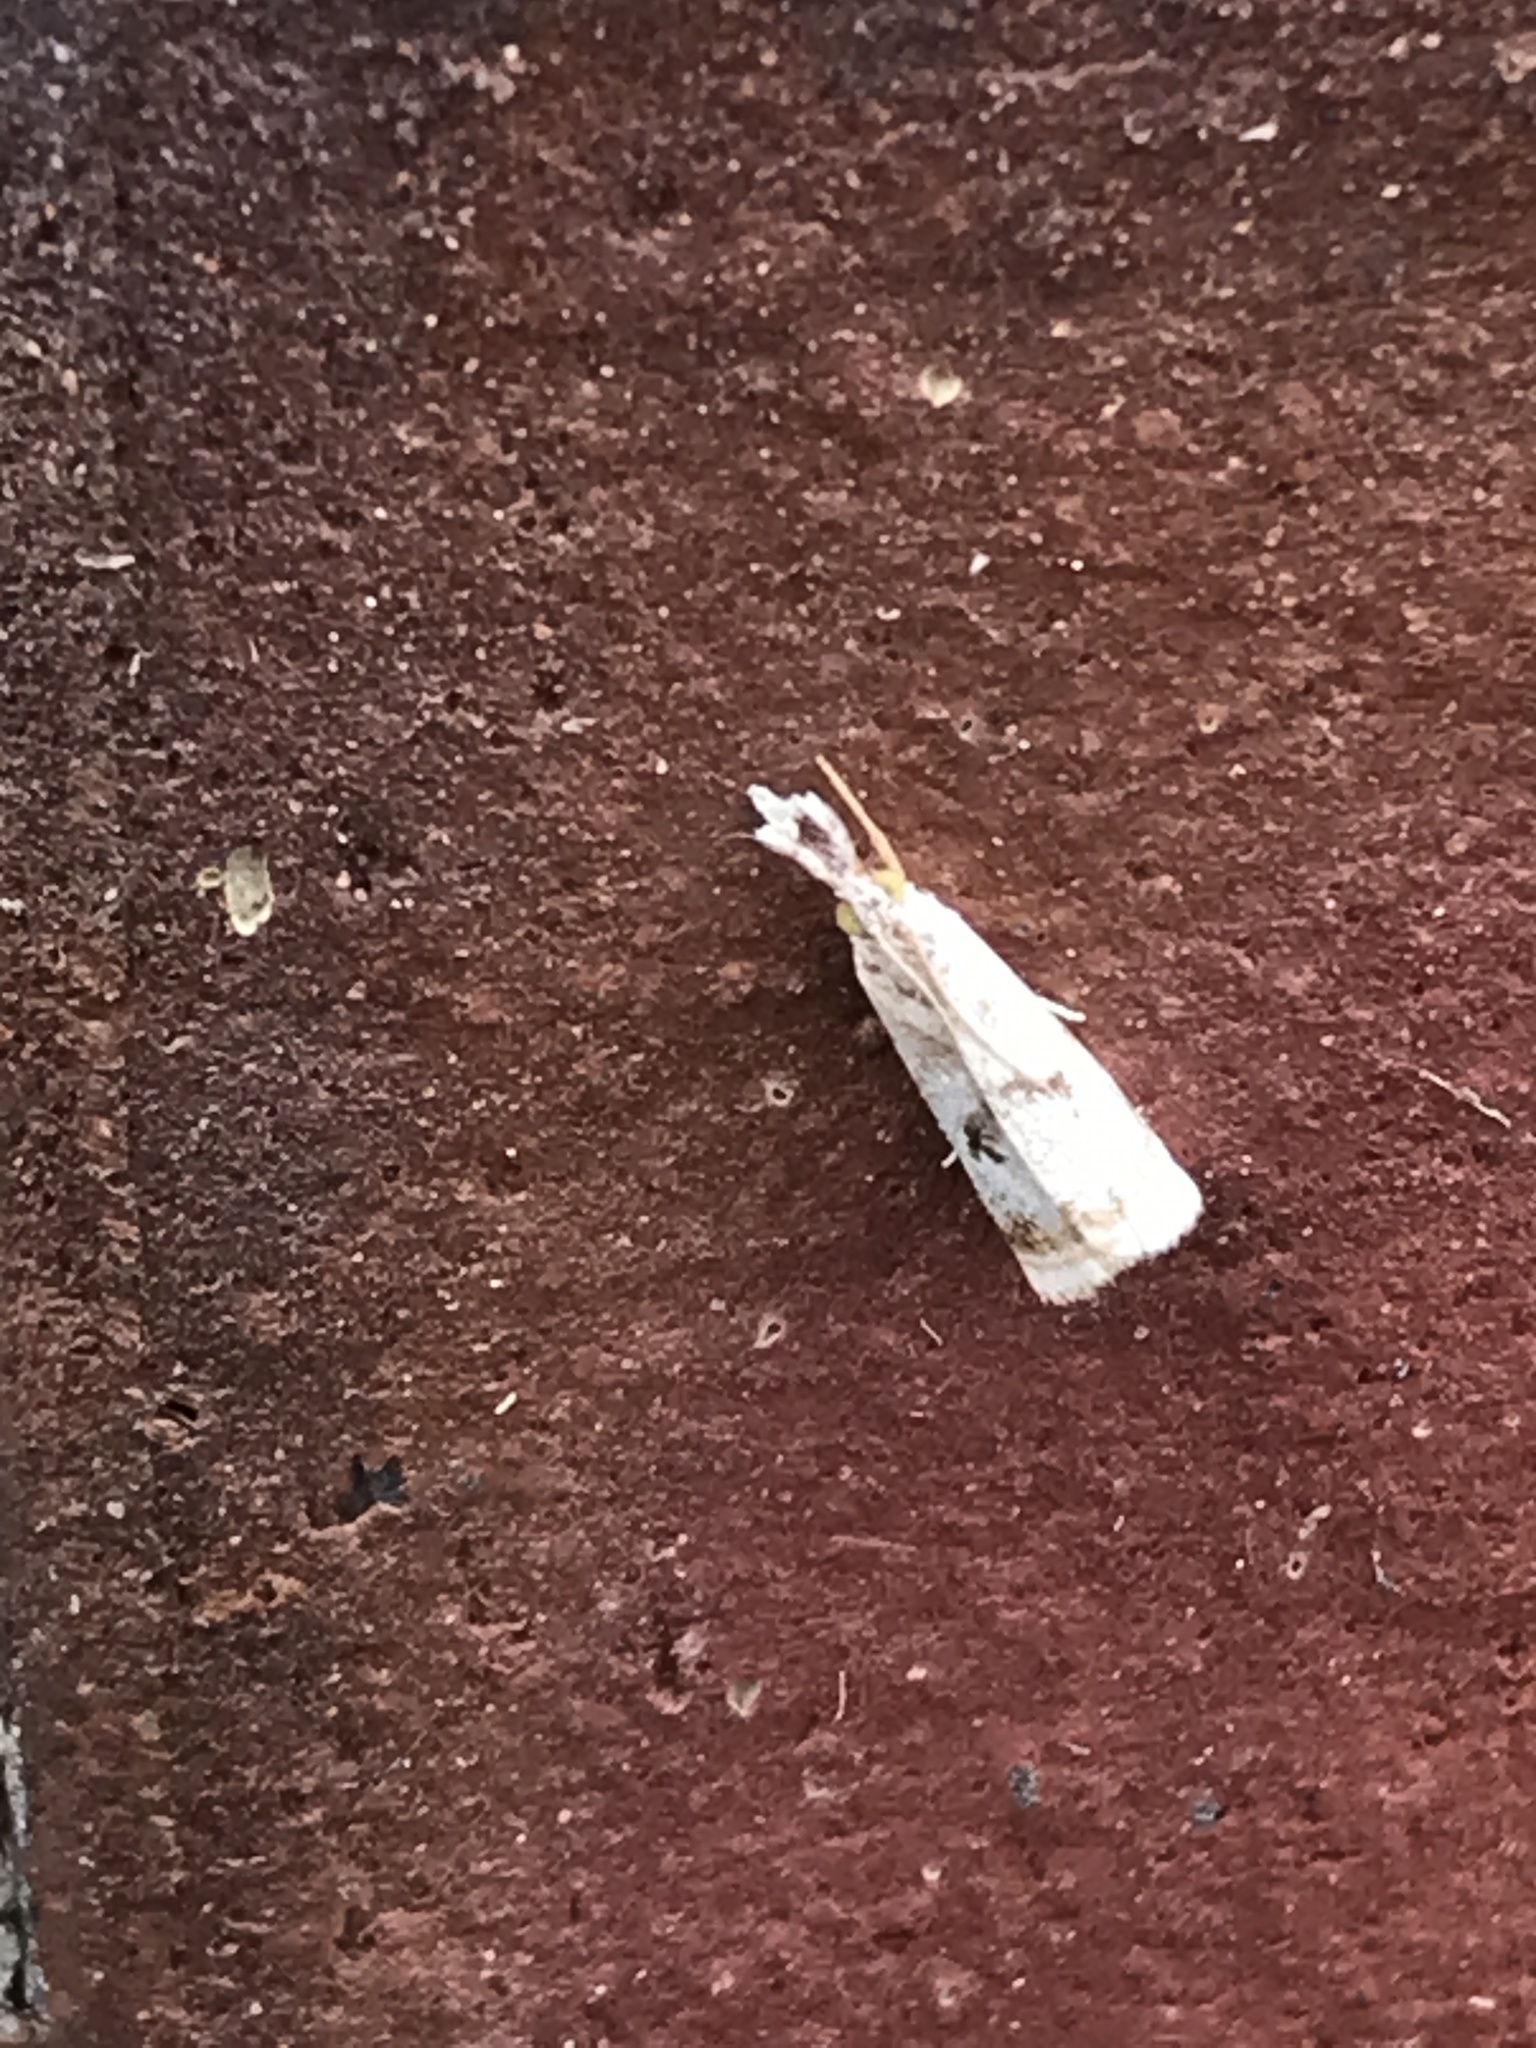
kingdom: Animalia
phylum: Arthropoda
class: Insecta
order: Lepidoptera
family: Crambidae
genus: Microcrambus
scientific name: Microcrambus elegans
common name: Elegant grass-veneer
